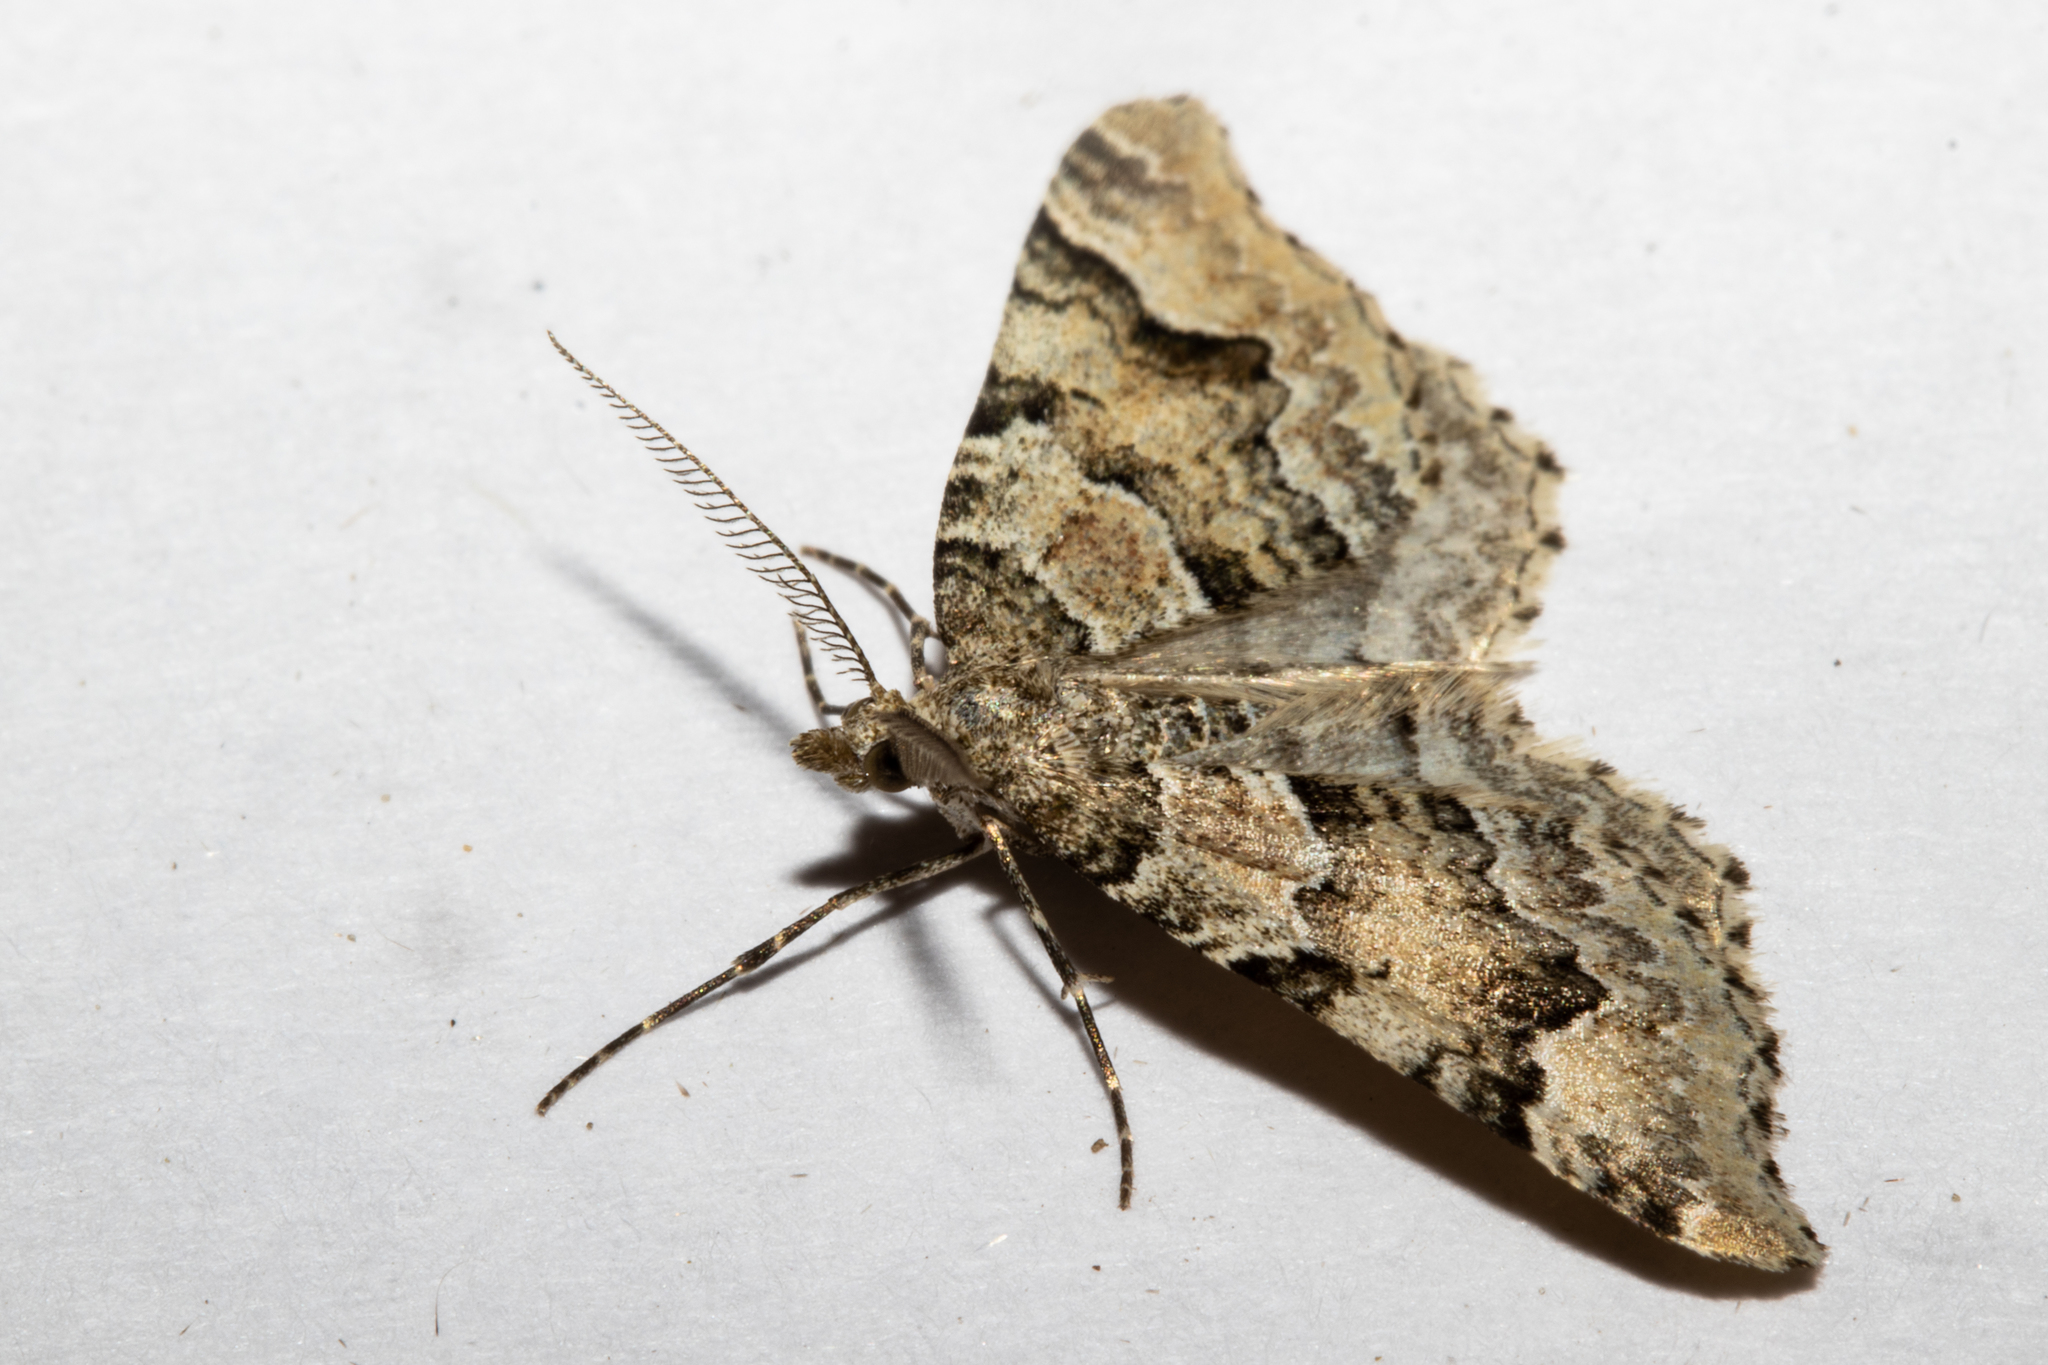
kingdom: Animalia
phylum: Arthropoda
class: Insecta
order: Lepidoptera
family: Geometridae
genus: Helastia
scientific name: Helastia cryptica
